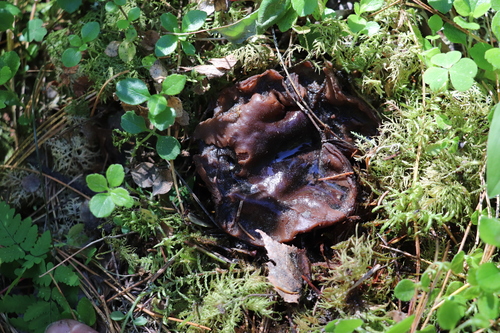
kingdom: Fungi
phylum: Ascomycota
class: Pezizomycetes
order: Pezizales
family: Sarcosomataceae
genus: Sarcosoma
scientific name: Sarcosoma globosum
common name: Charred-pancake cup
